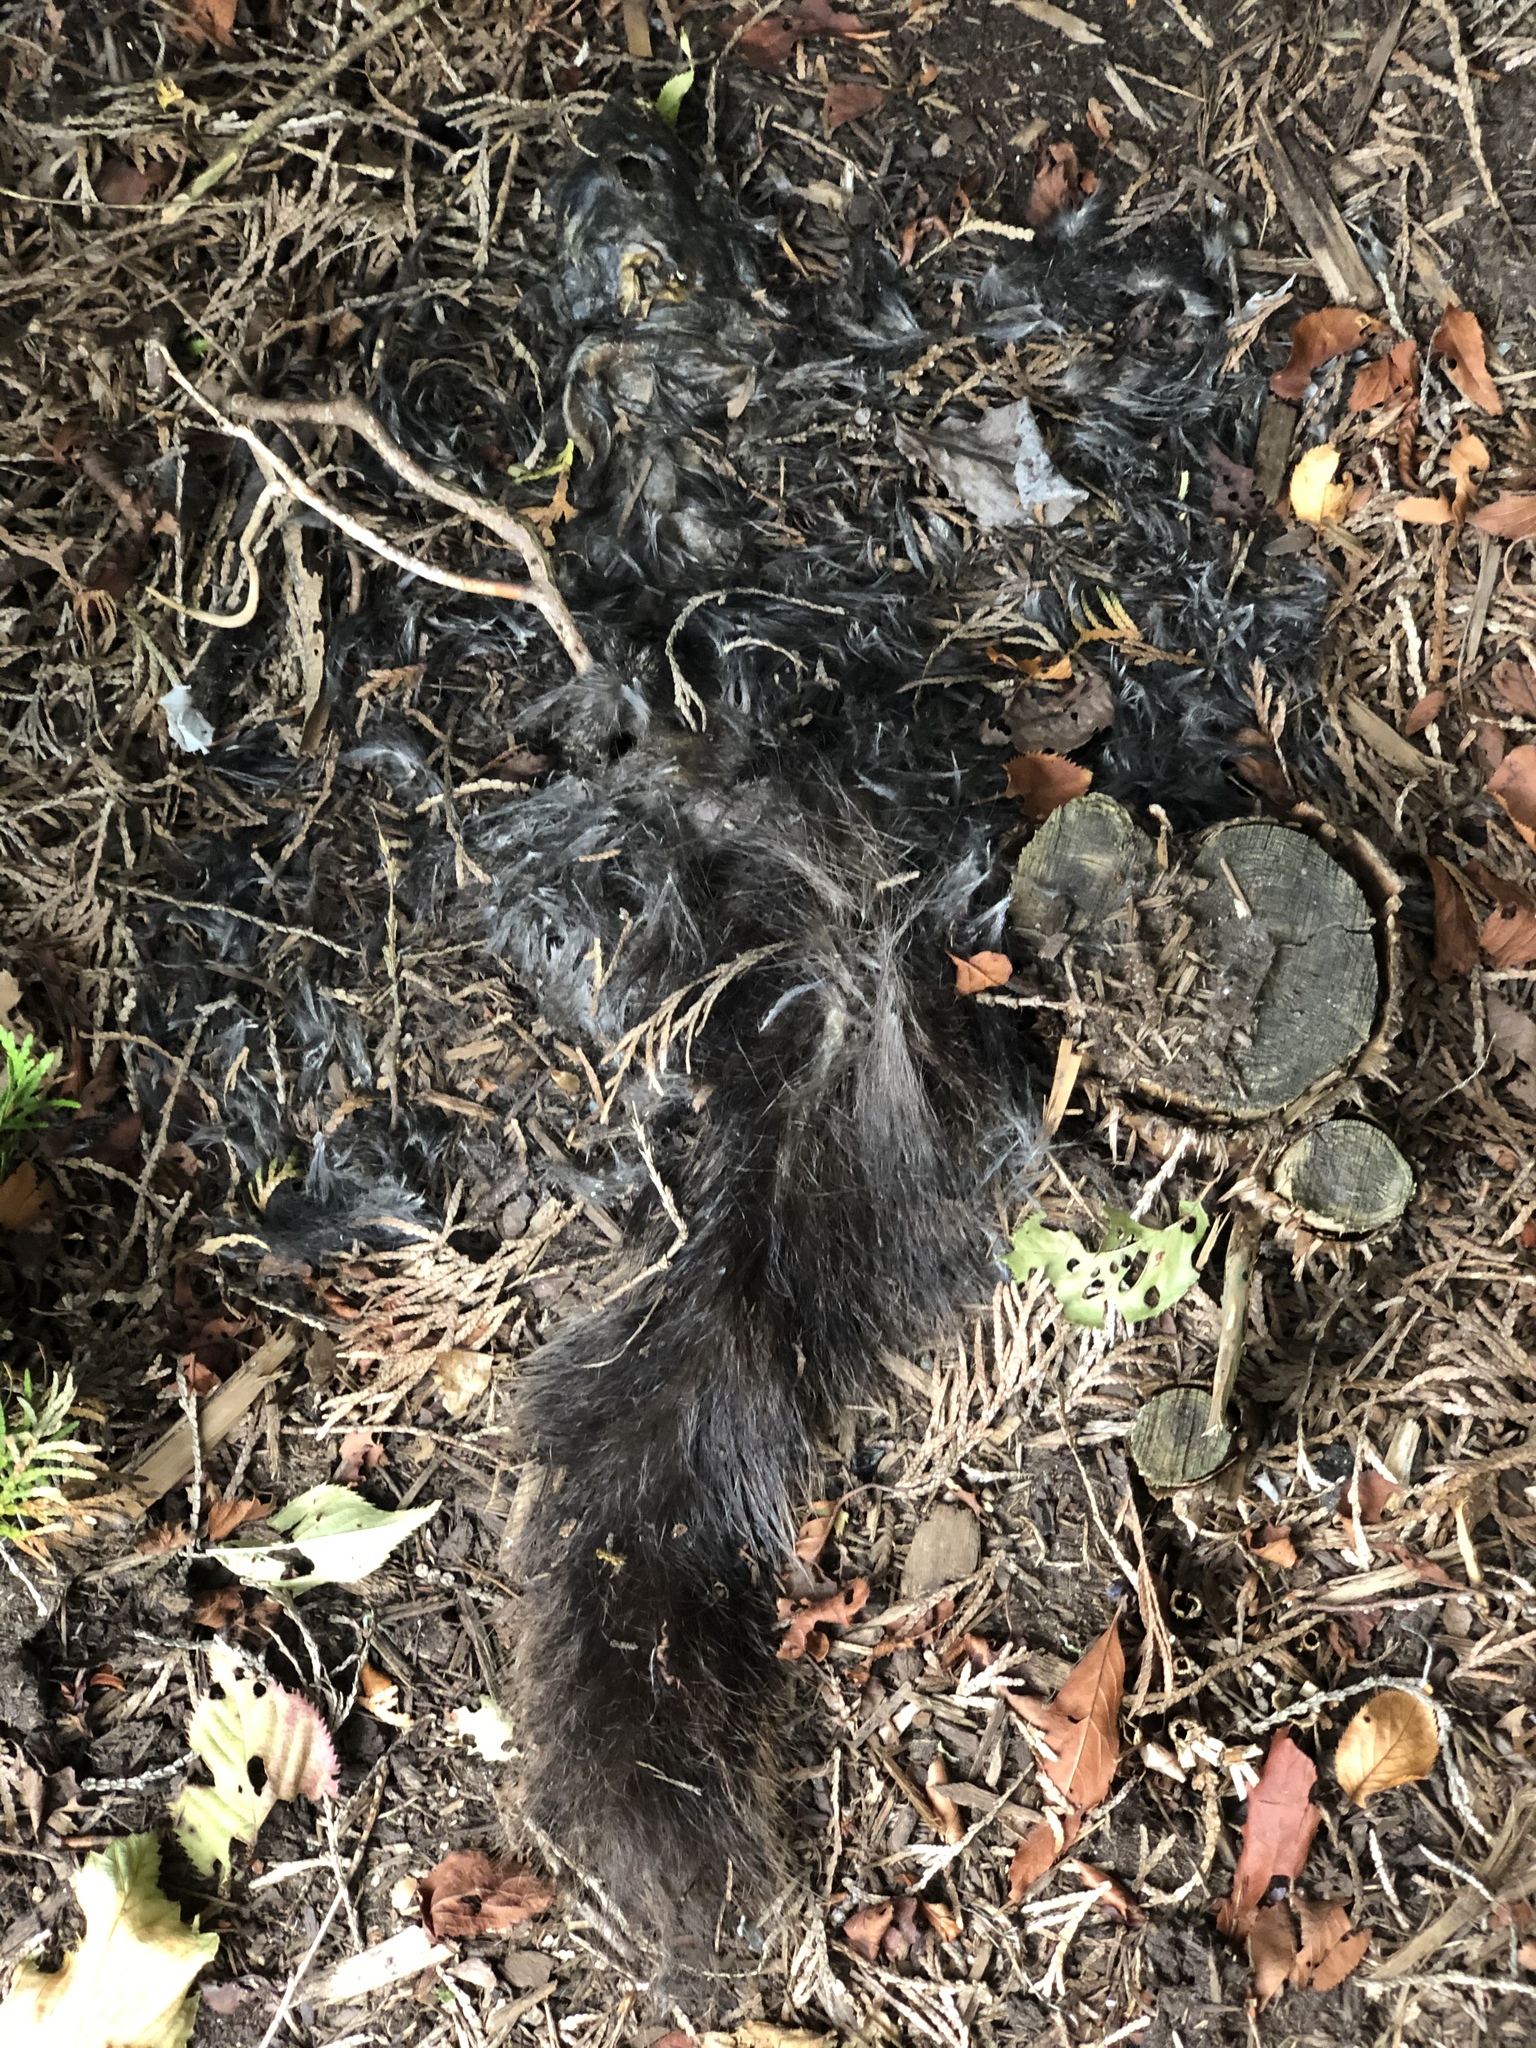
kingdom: Animalia
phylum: Chordata
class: Mammalia
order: Rodentia
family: Sciuridae
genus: Sciurus
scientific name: Sciurus carolinensis
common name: Eastern gray squirrel
